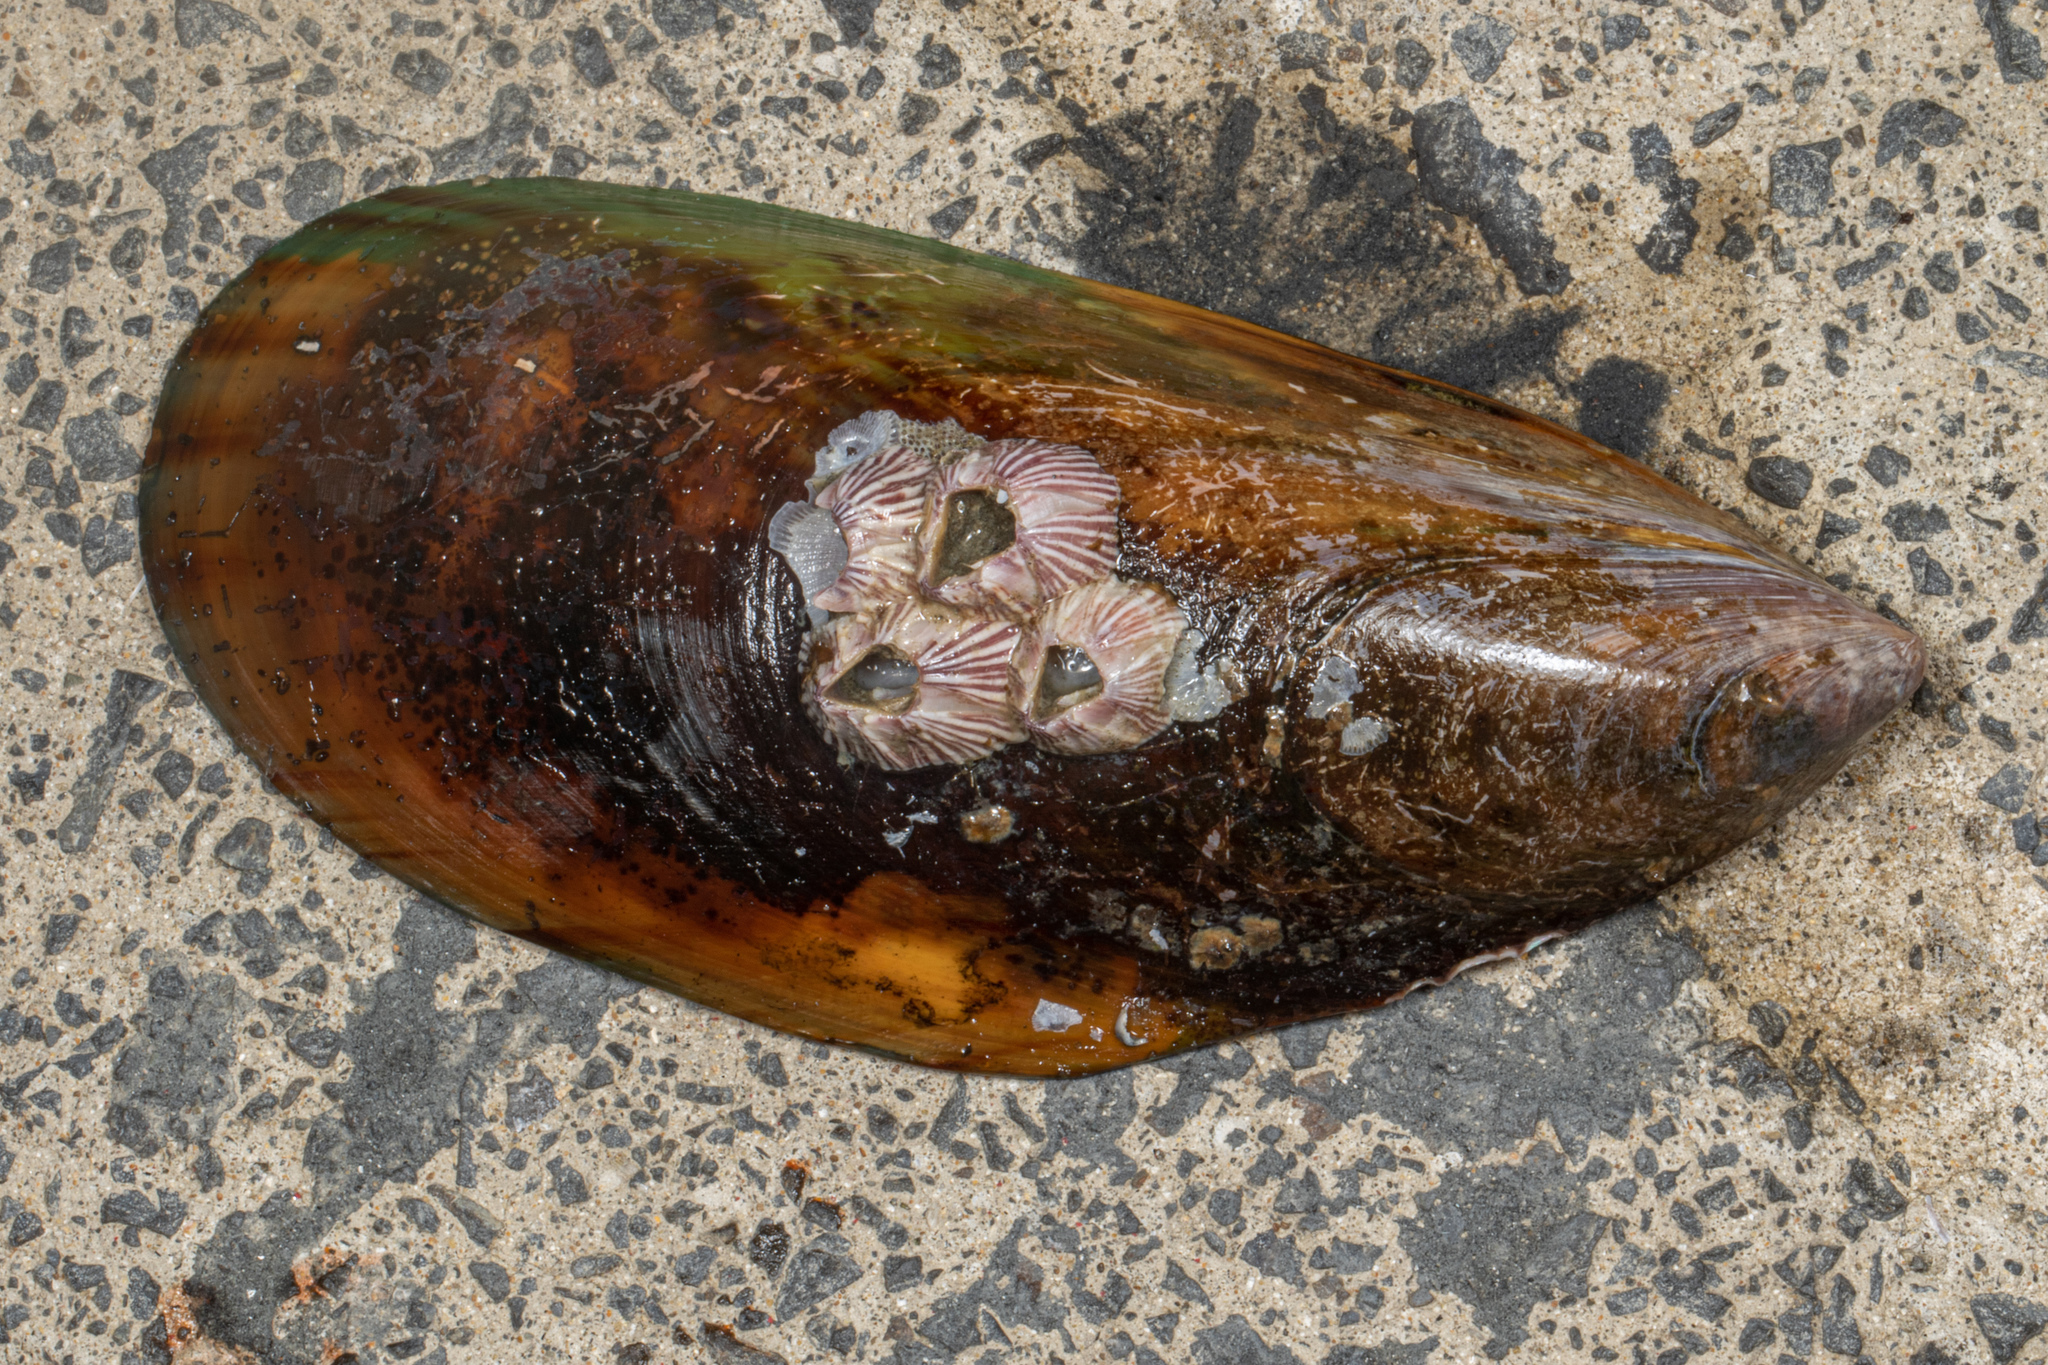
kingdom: Animalia
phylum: Mollusca
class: Bivalvia
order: Mytilida
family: Mytilidae
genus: Perna
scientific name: Perna canaliculus
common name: New zealand greenshelltm
